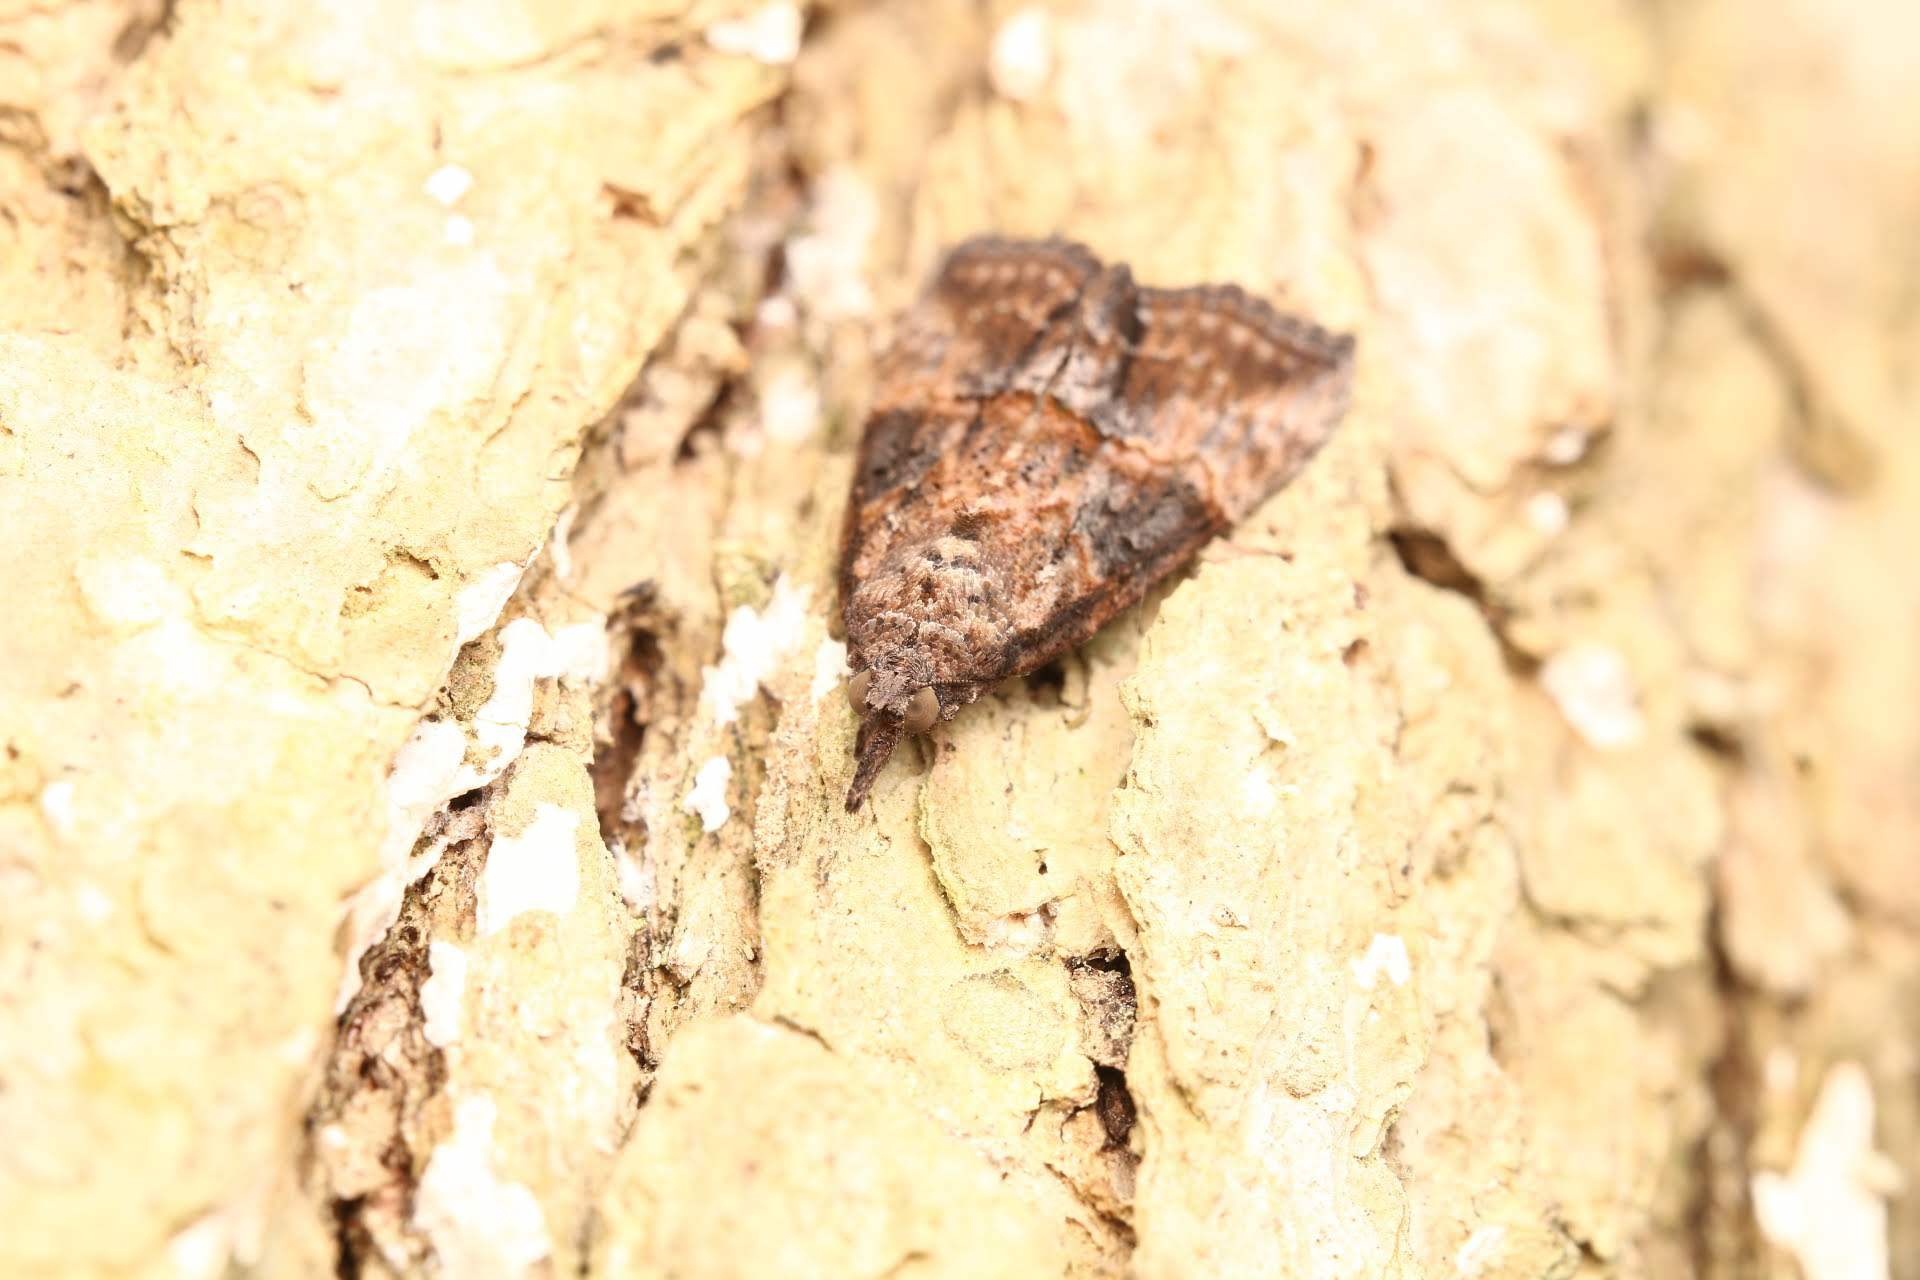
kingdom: Animalia
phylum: Arthropoda
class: Insecta
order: Lepidoptera
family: Erebidae
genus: Hypena
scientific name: Hypena scabra
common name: Green cloverworm
